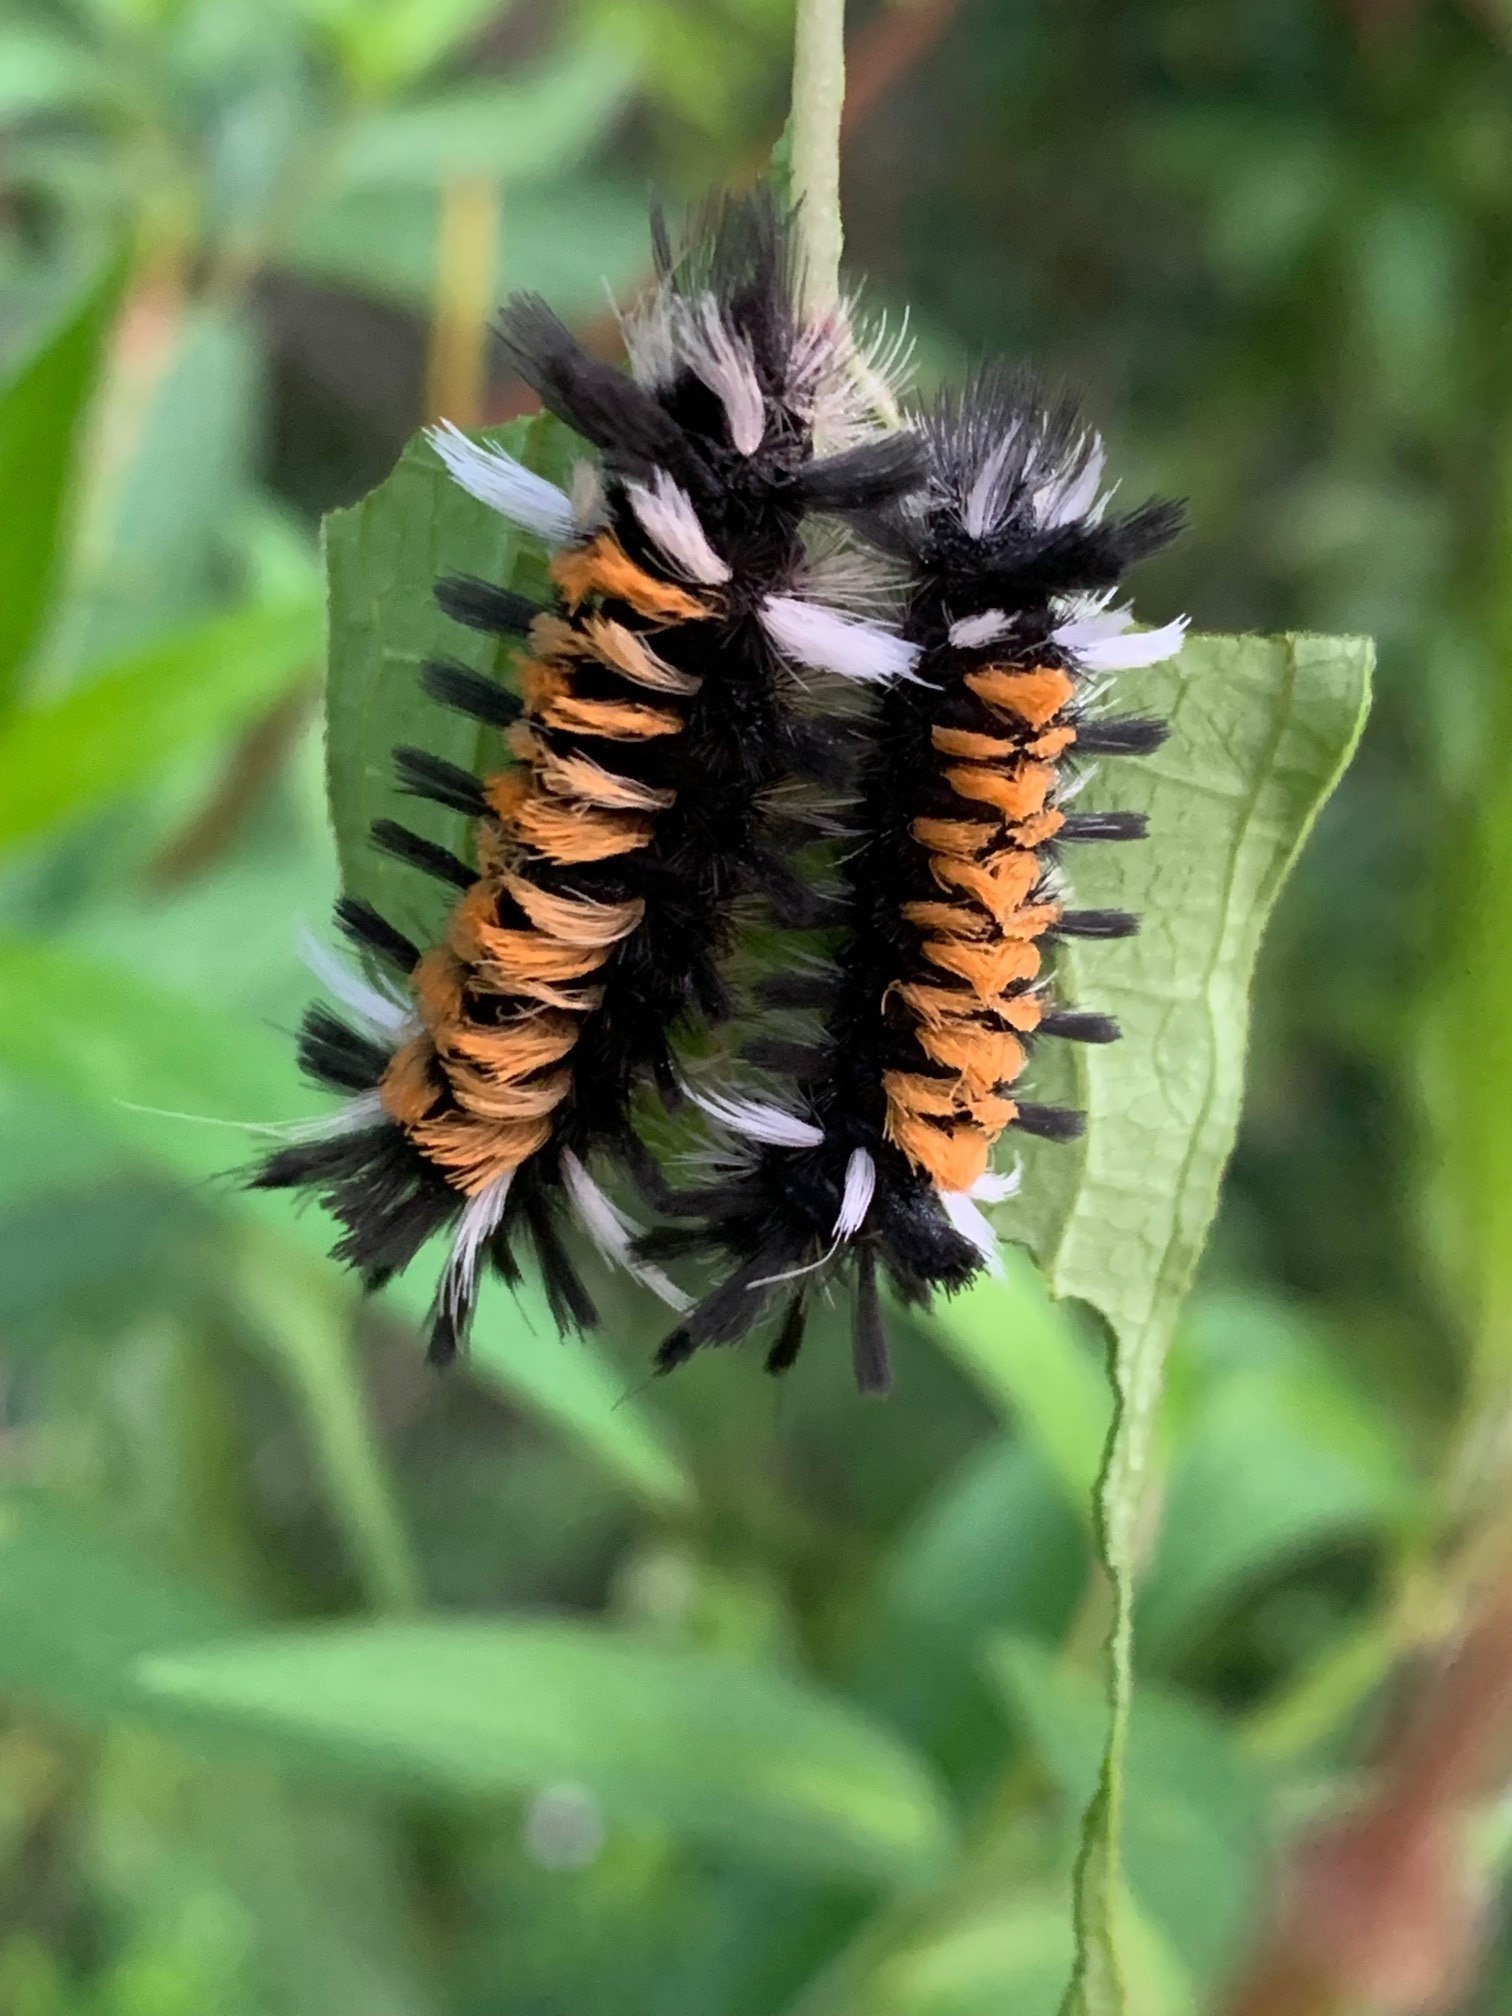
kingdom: Animalia
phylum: Arthropoda
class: Insecta
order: Lepidoptera
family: Erebidae
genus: Euchaetes
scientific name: Euchaetes egle
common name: Milkweed tussock moth
